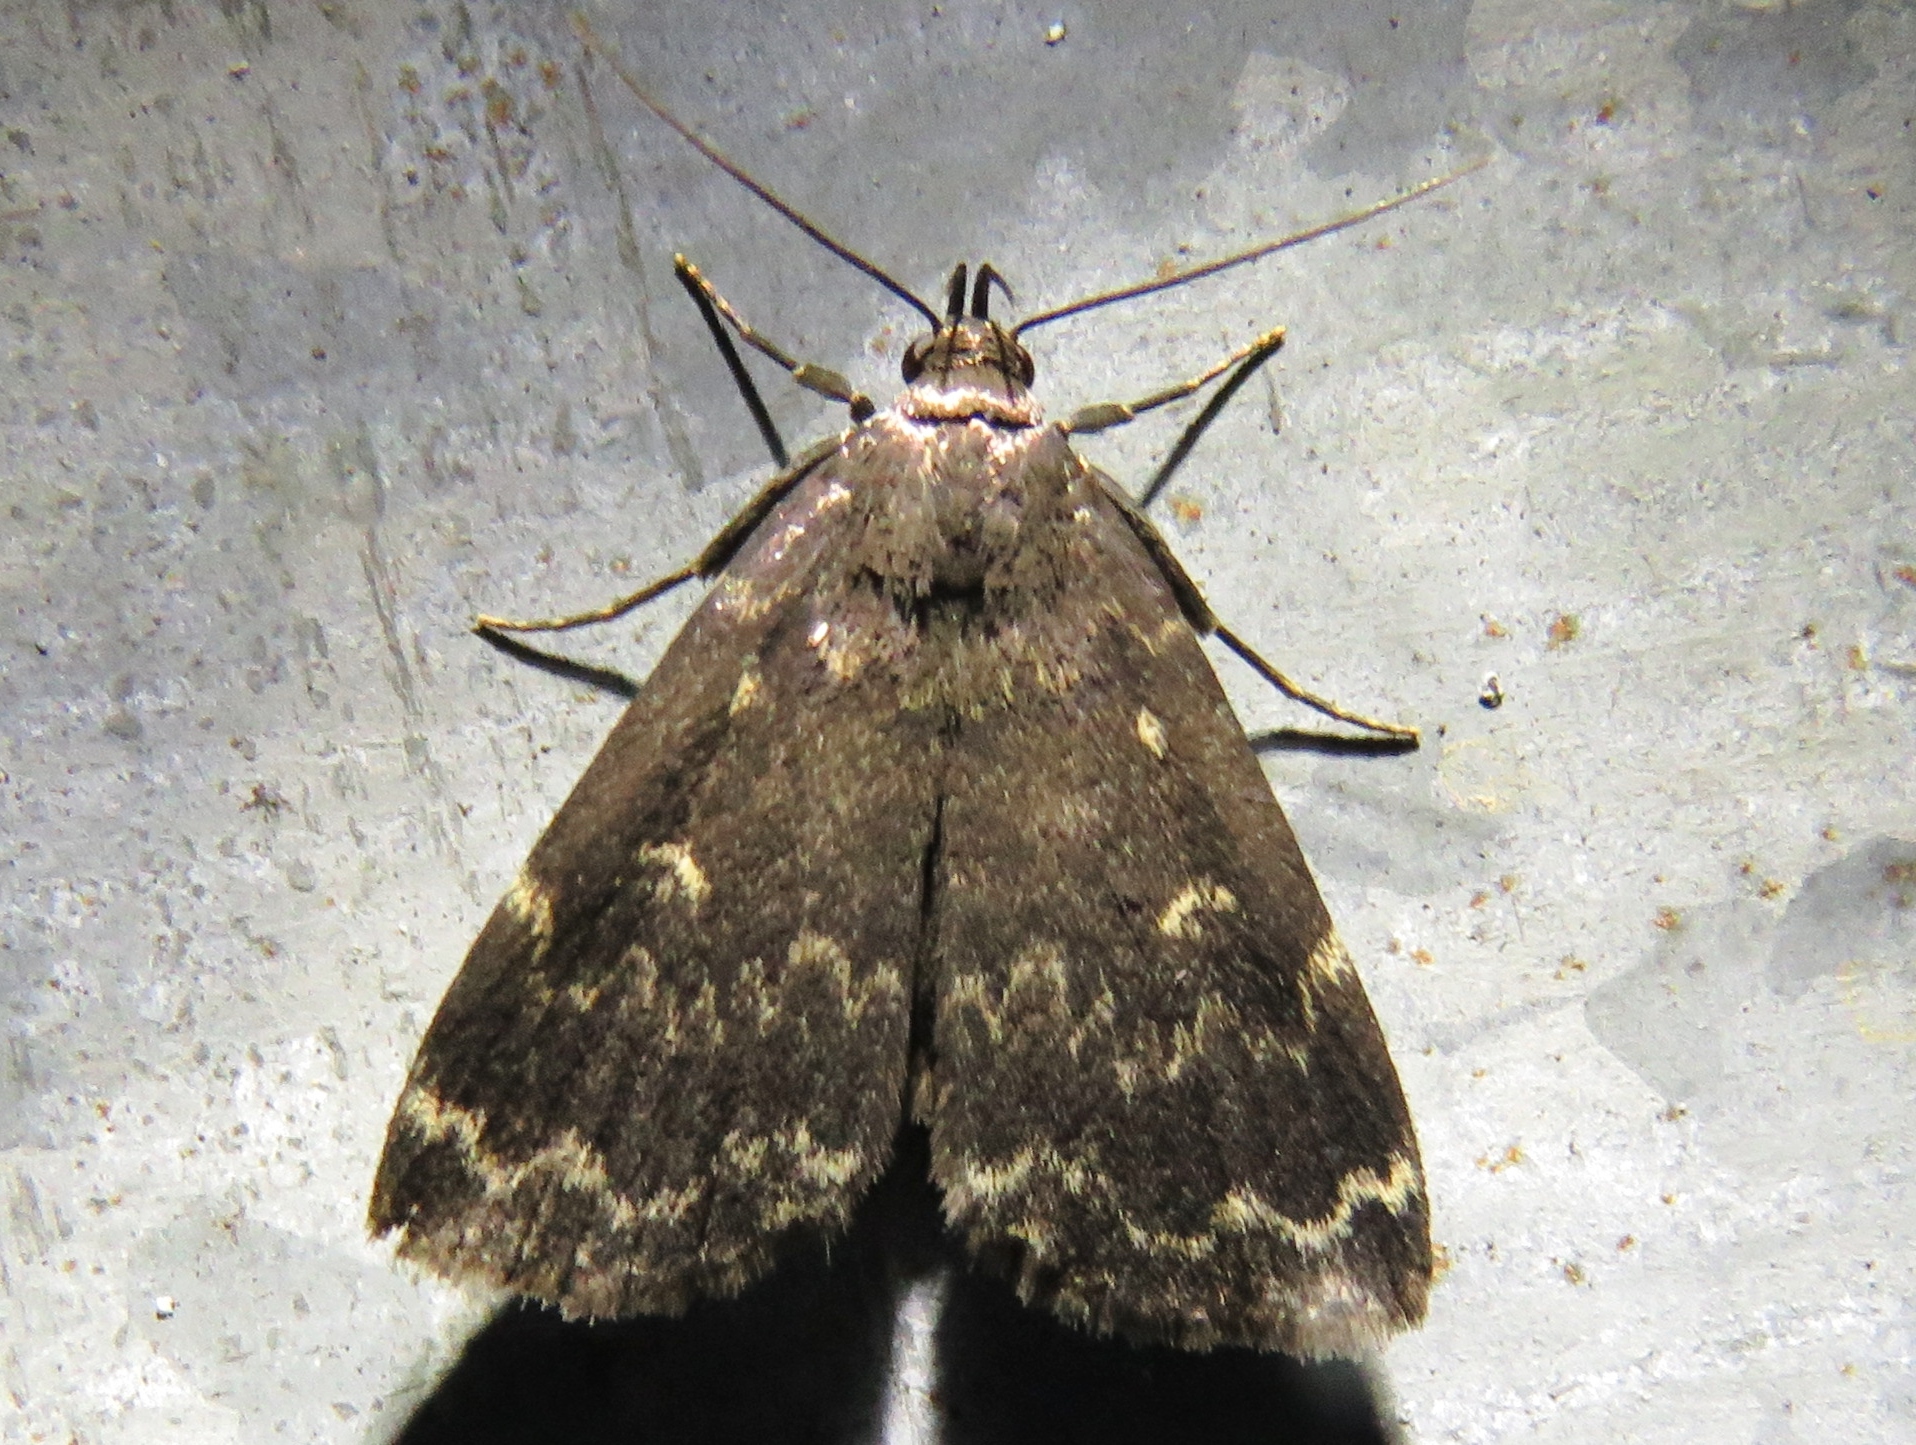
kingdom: Animalia
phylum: Arthropoda
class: Insecta
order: Lepidoptera
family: Erebidae
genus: Idia
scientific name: Idia lubricalis
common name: Twin-striped tabby
